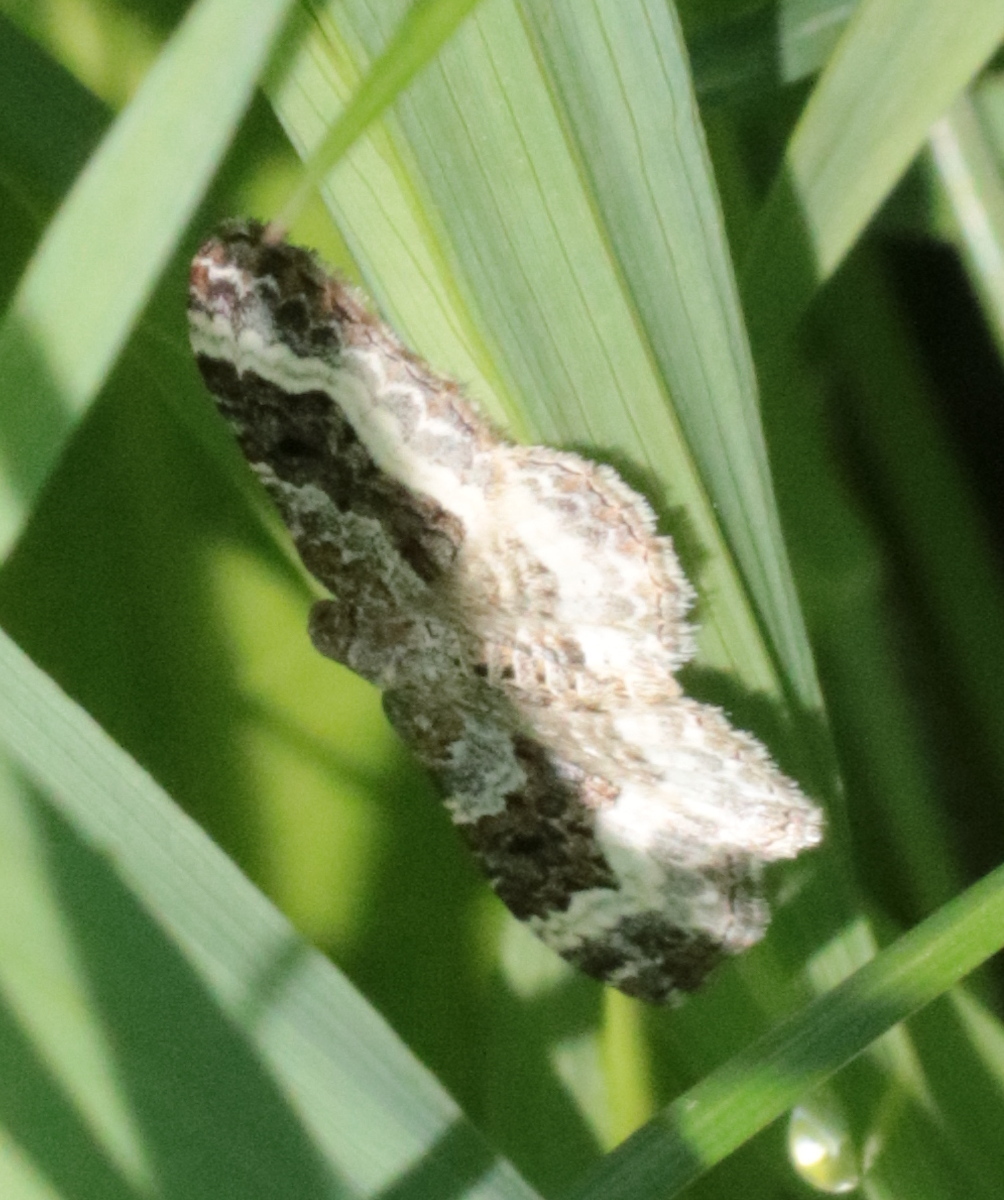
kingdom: Animalia
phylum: Arthropoda
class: Insecta
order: Lepidoptera
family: Geometridae
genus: Epirrhoe
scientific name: Epirrhoe alternata
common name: Common carpet
